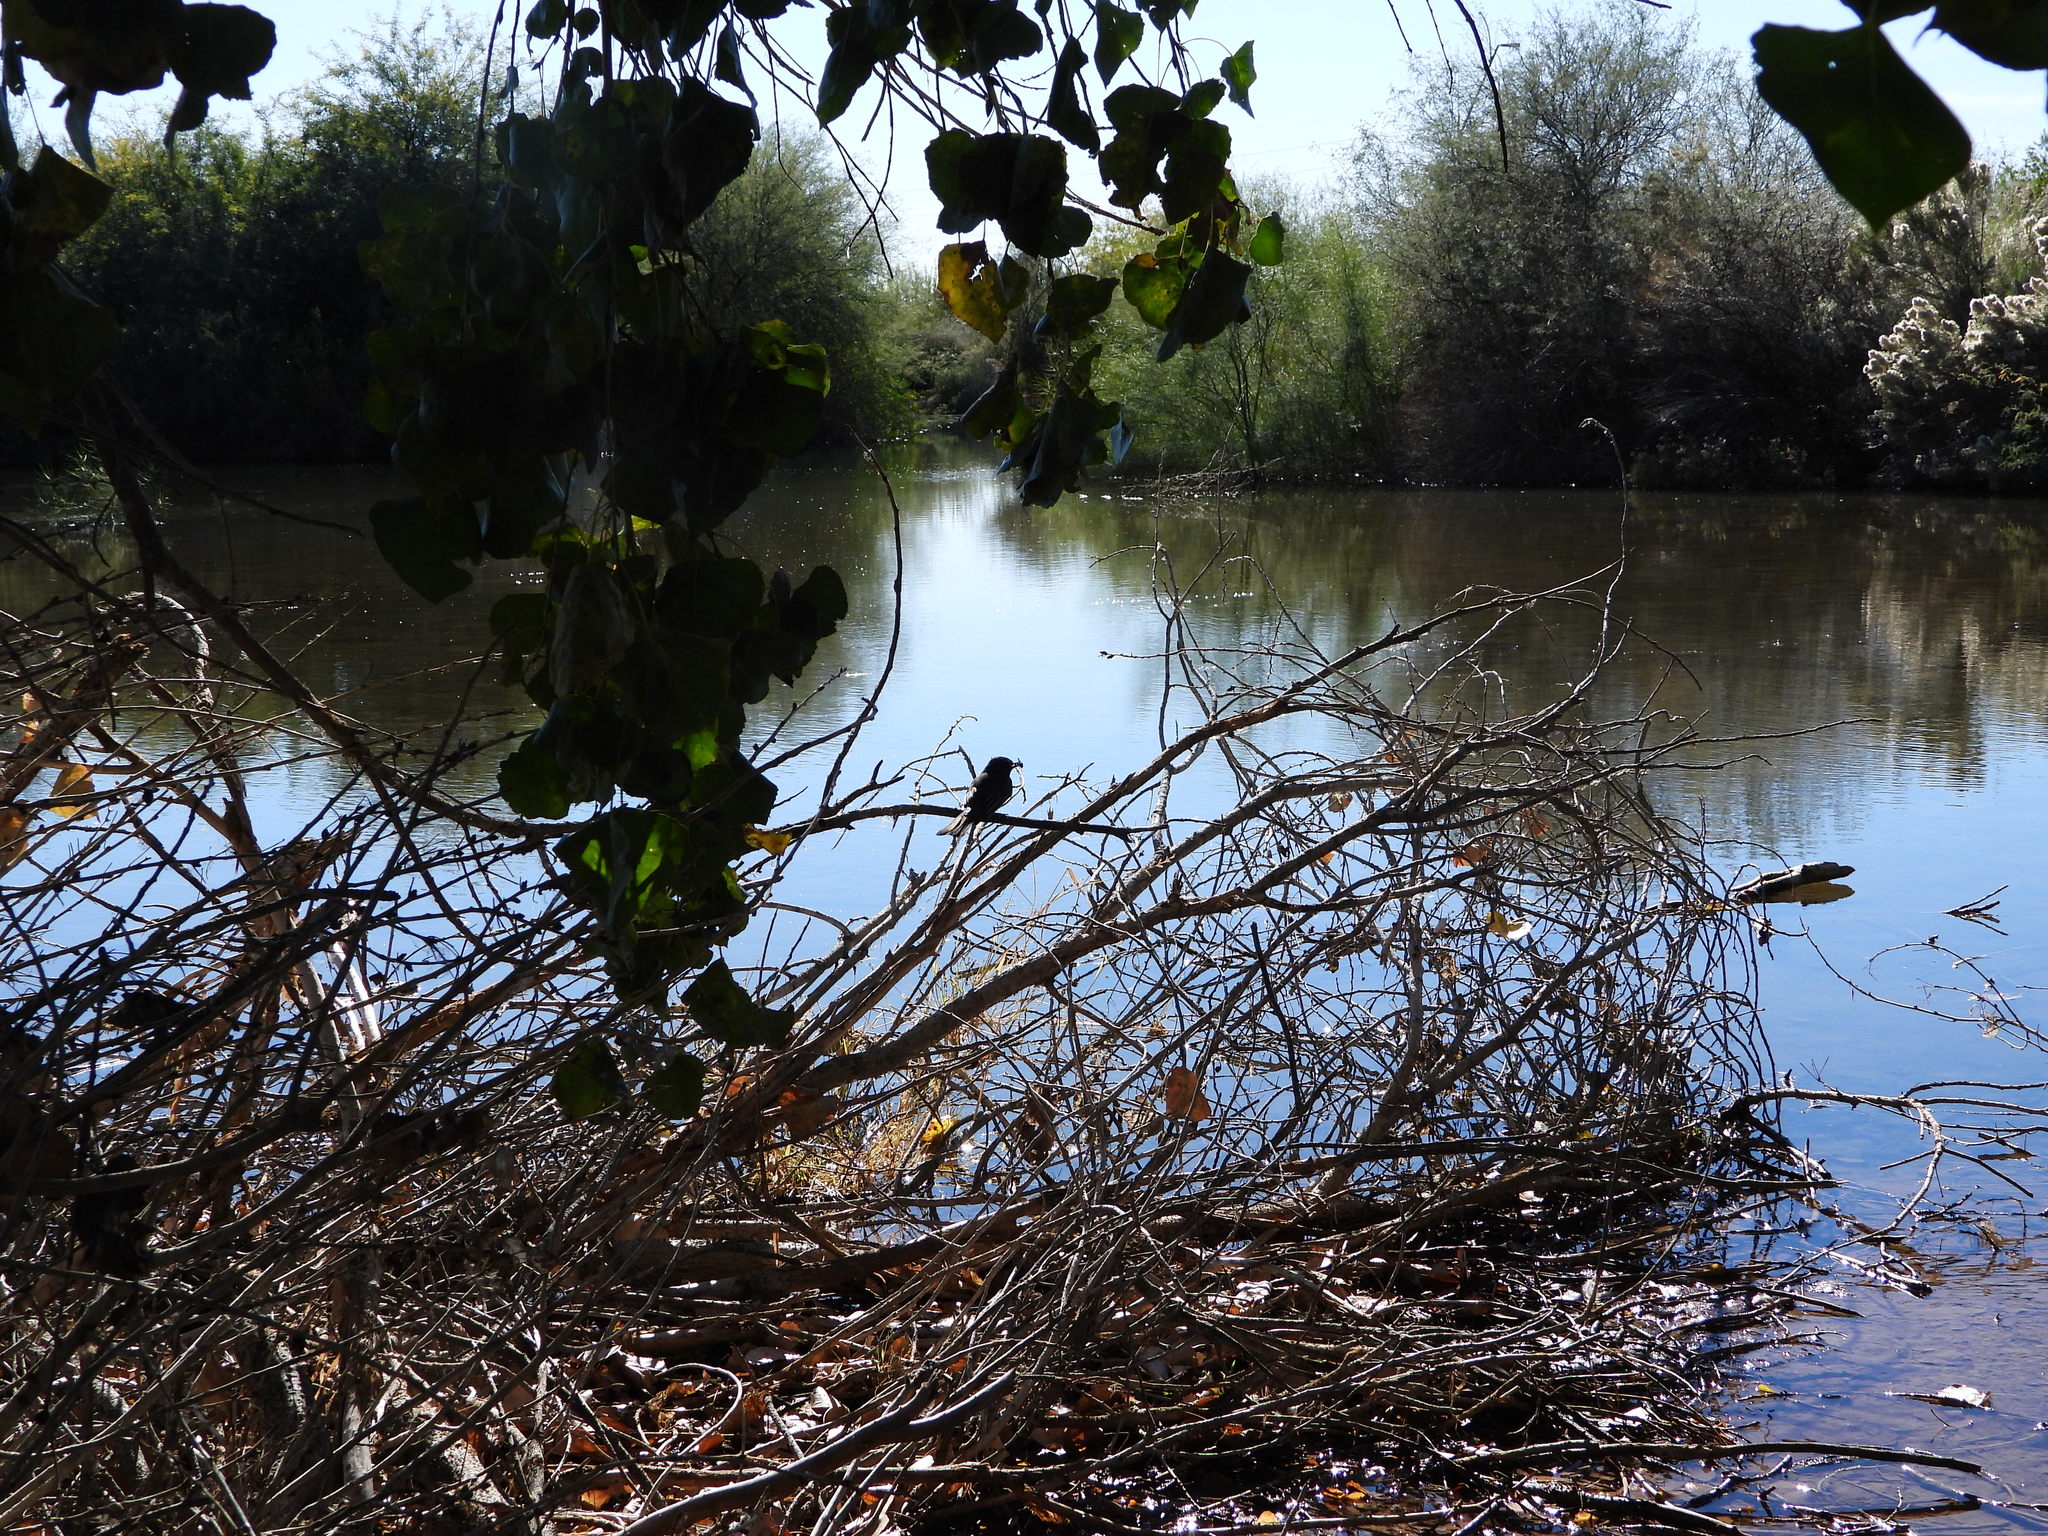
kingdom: Animalia
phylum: Chordata
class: Aves
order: Passeriformes
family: Tyrannidae
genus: Sayornis
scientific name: Sayornis nigricans
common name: Black phoebe
